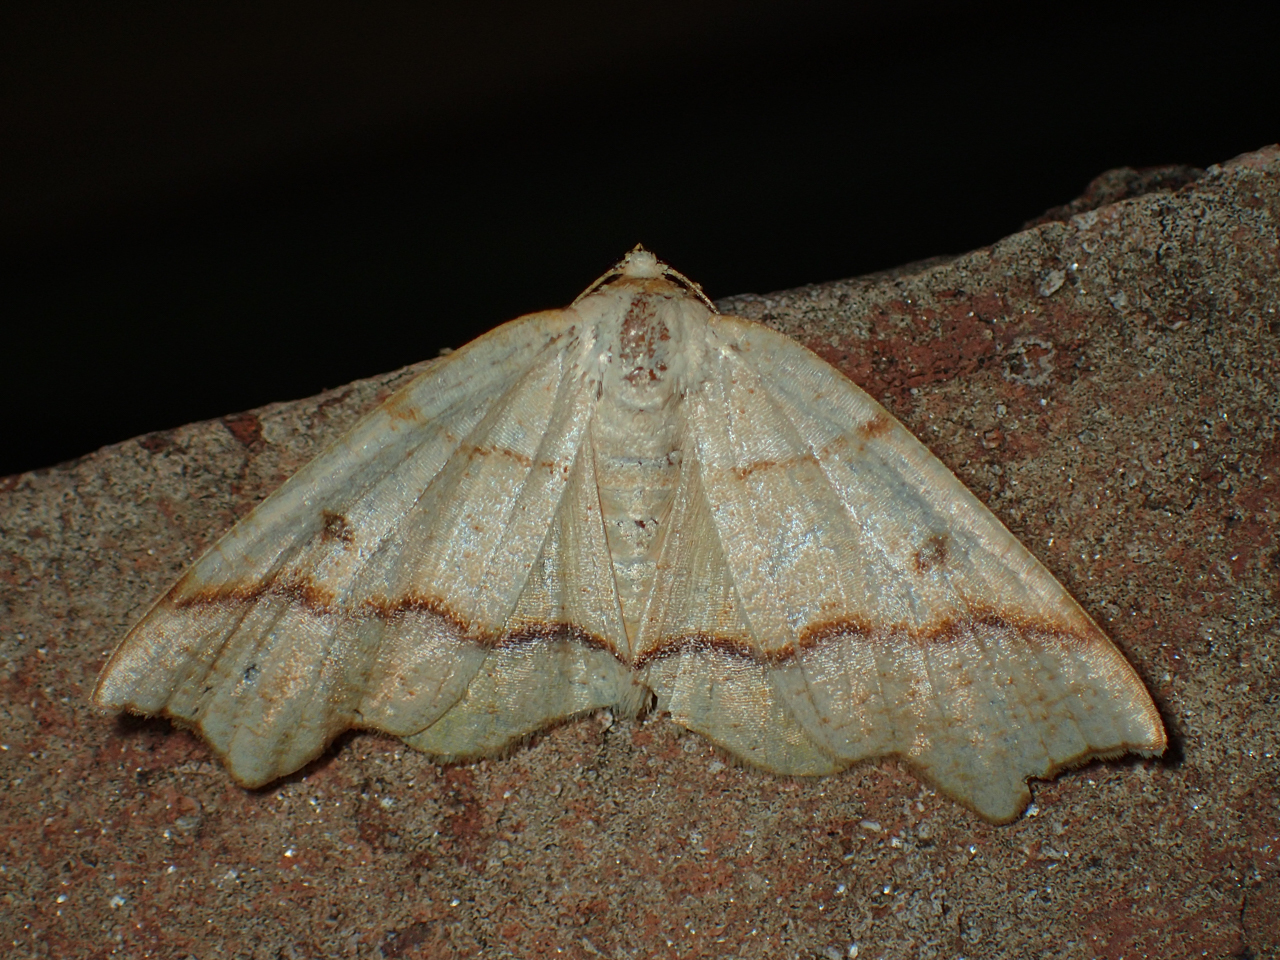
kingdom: Animalia
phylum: Arthropoda
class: Insecta
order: Lepidoptera
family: Geometridae
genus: Plagodis
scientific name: Plagodis alcoolaria
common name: Hollow-spotted plagodis
